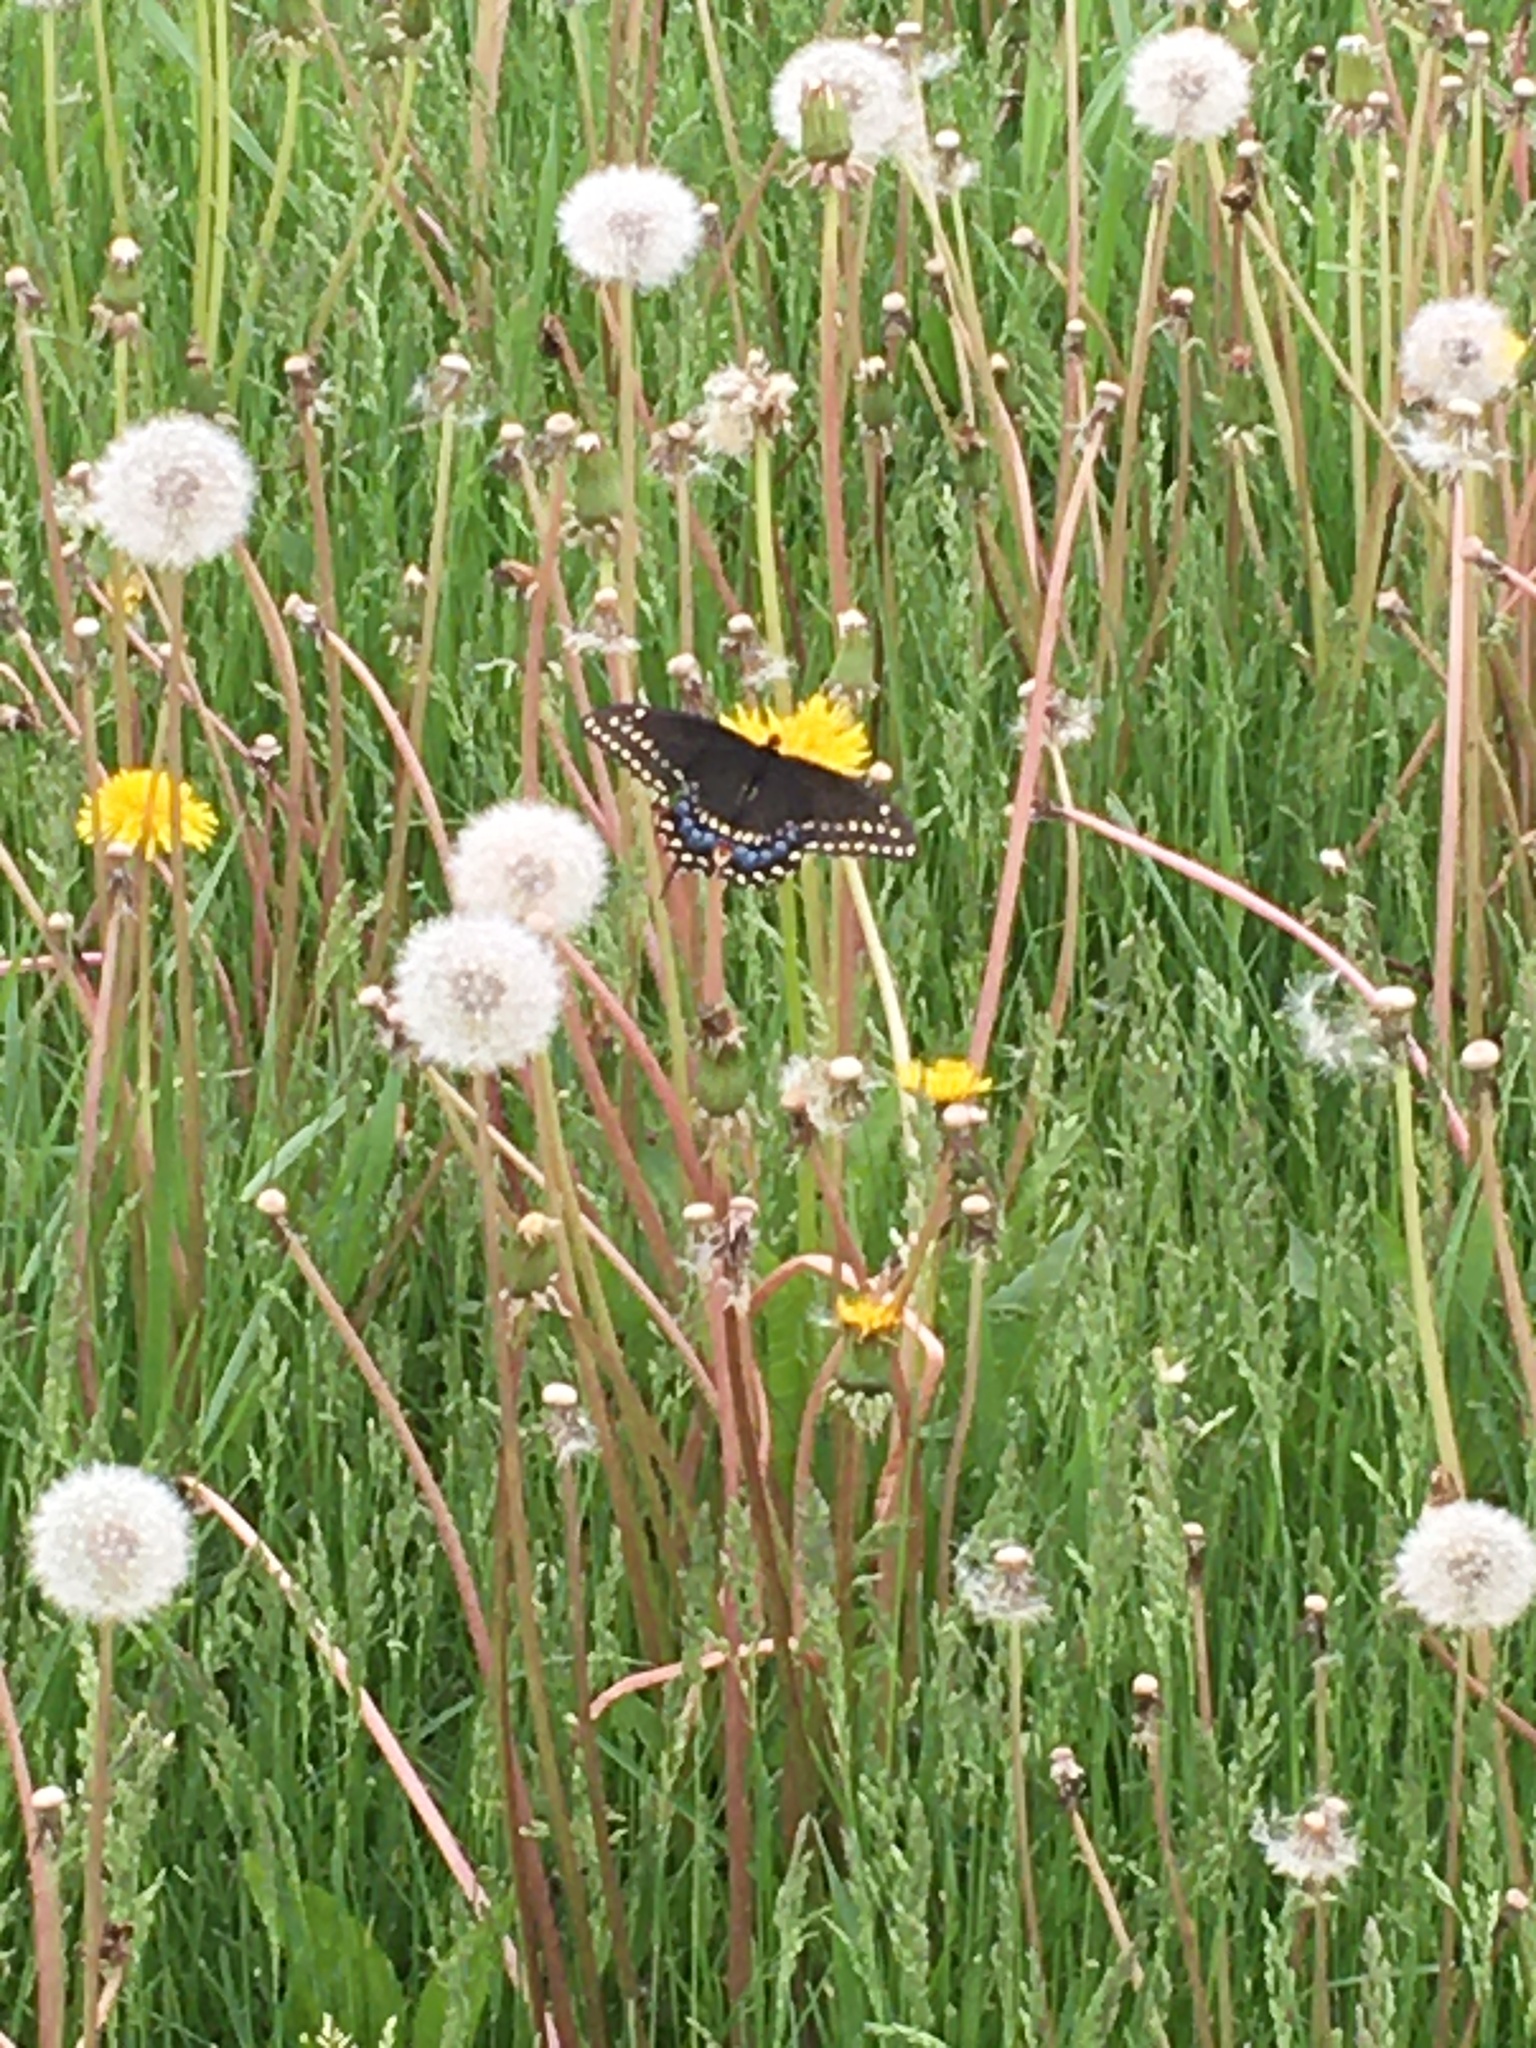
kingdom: Animalia
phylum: Arthropoda
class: Insecta
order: Lepidoptera
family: Papilionidae
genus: Papilio
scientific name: Papilio polyxenes
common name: Black swallowtail
